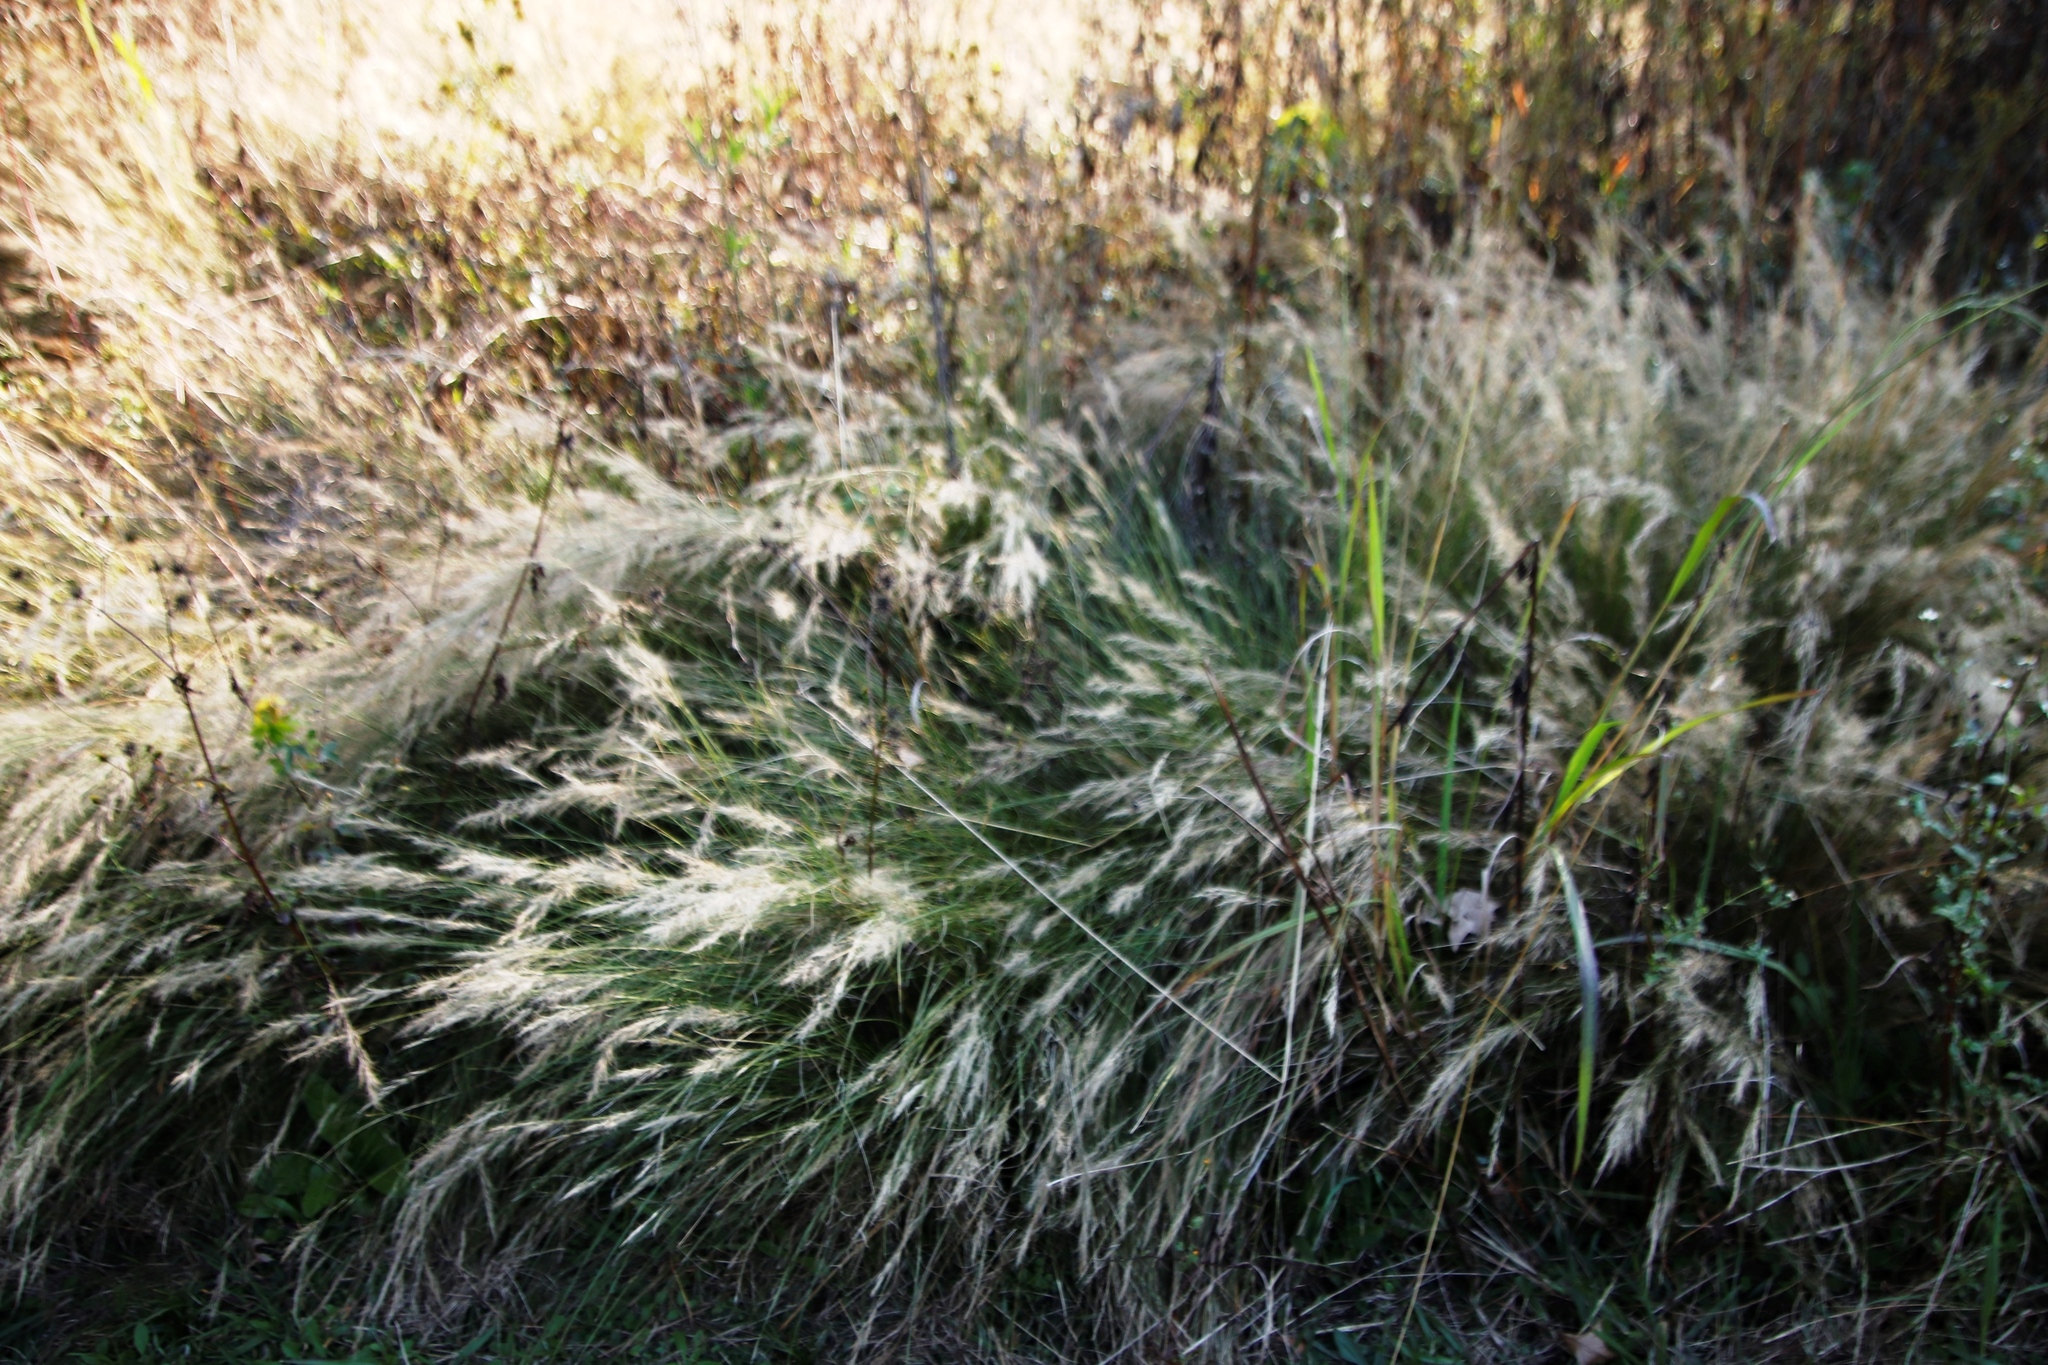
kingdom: Plantae
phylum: Tracheophyta
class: Liliopsida
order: Poales
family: Poaceae
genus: Aristida
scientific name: Aristida junciformis
